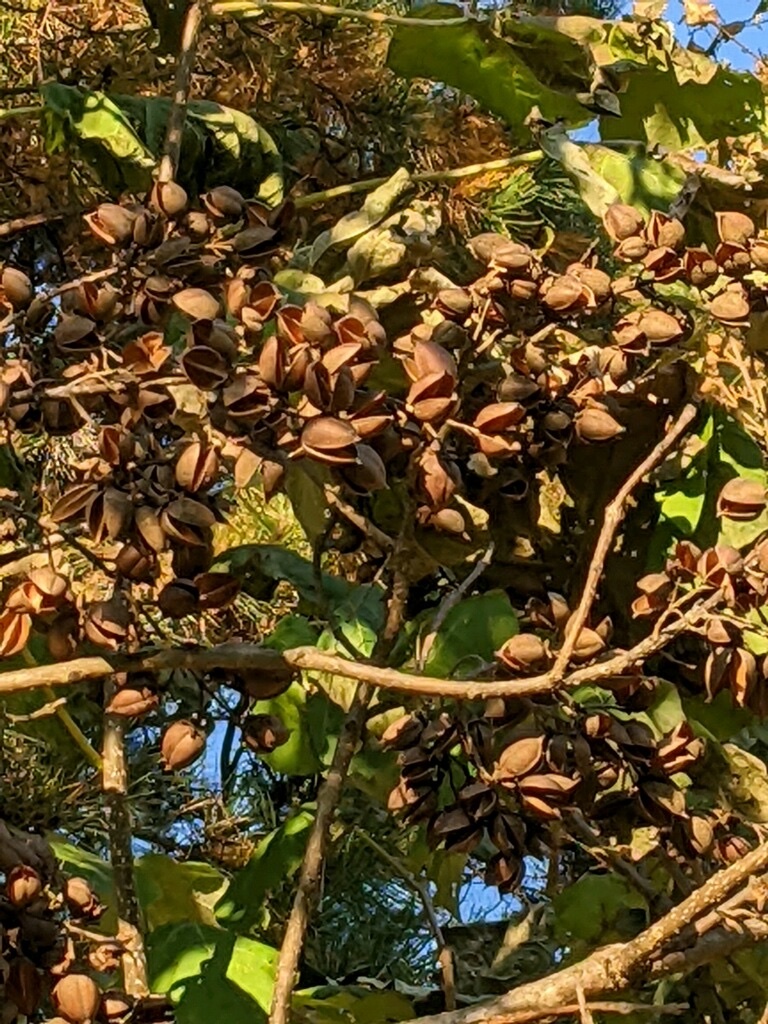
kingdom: Plantae
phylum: Tracheophyta
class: Magnoliopsida
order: Lamiales
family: Paulowniaceae
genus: Paulownia
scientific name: Paulownia tomentosa
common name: Foxglove-tree
